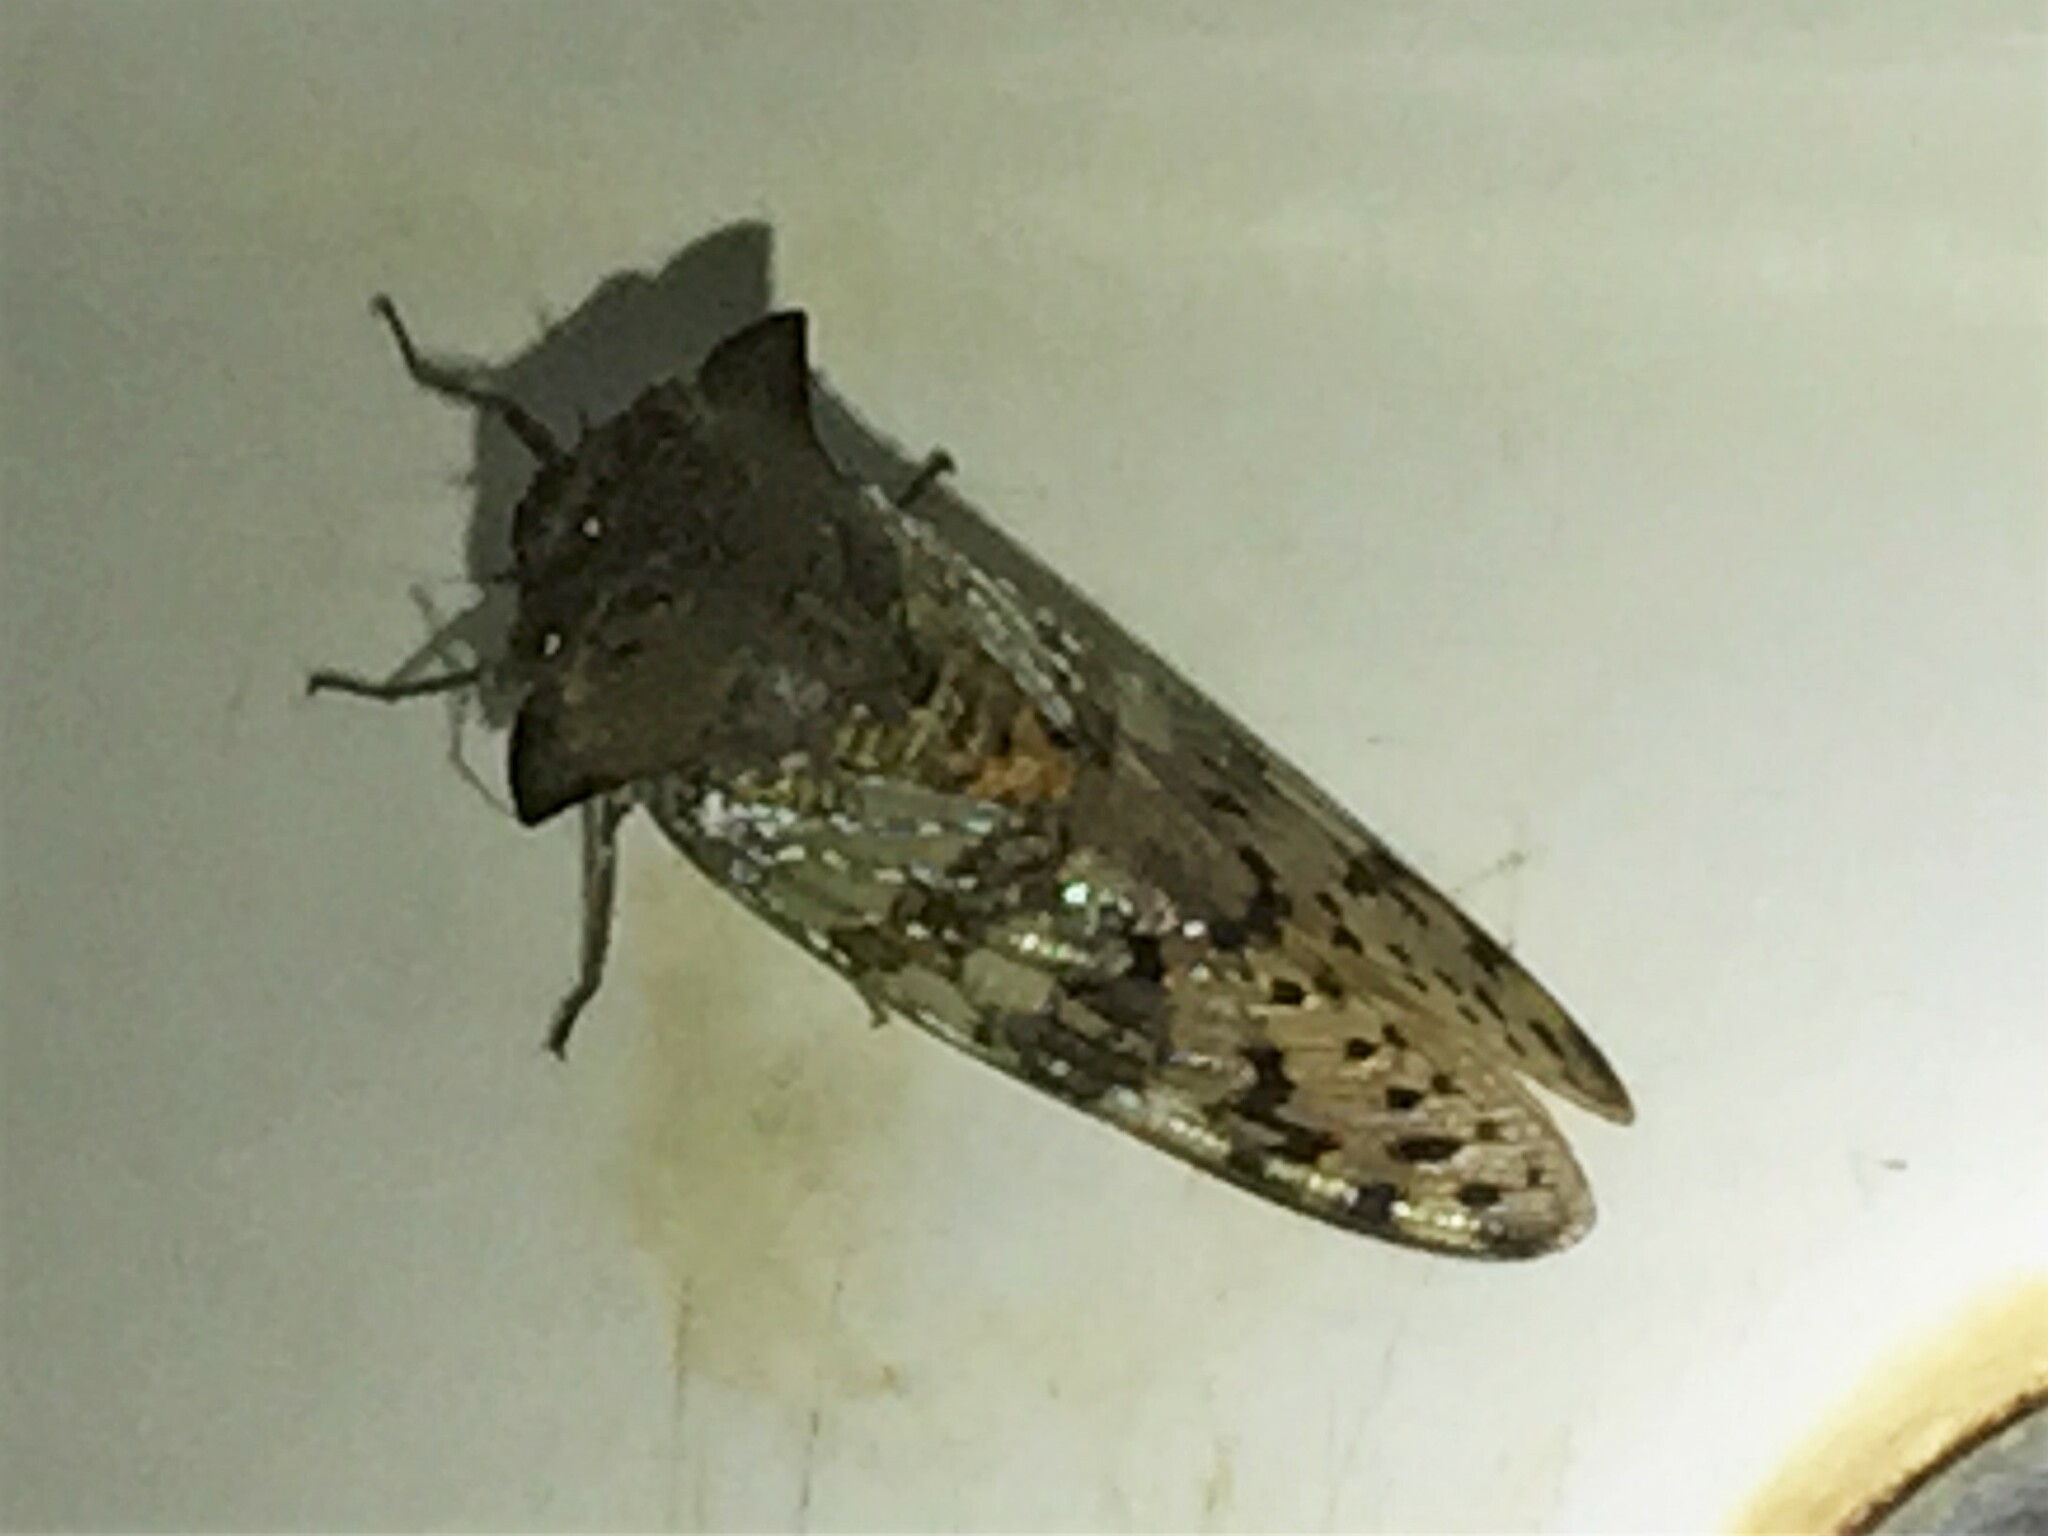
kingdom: Animalia
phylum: Arthropoda
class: Insecta
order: Hemiptera
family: Cicadidae
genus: Ioba
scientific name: Ioba leopardina
